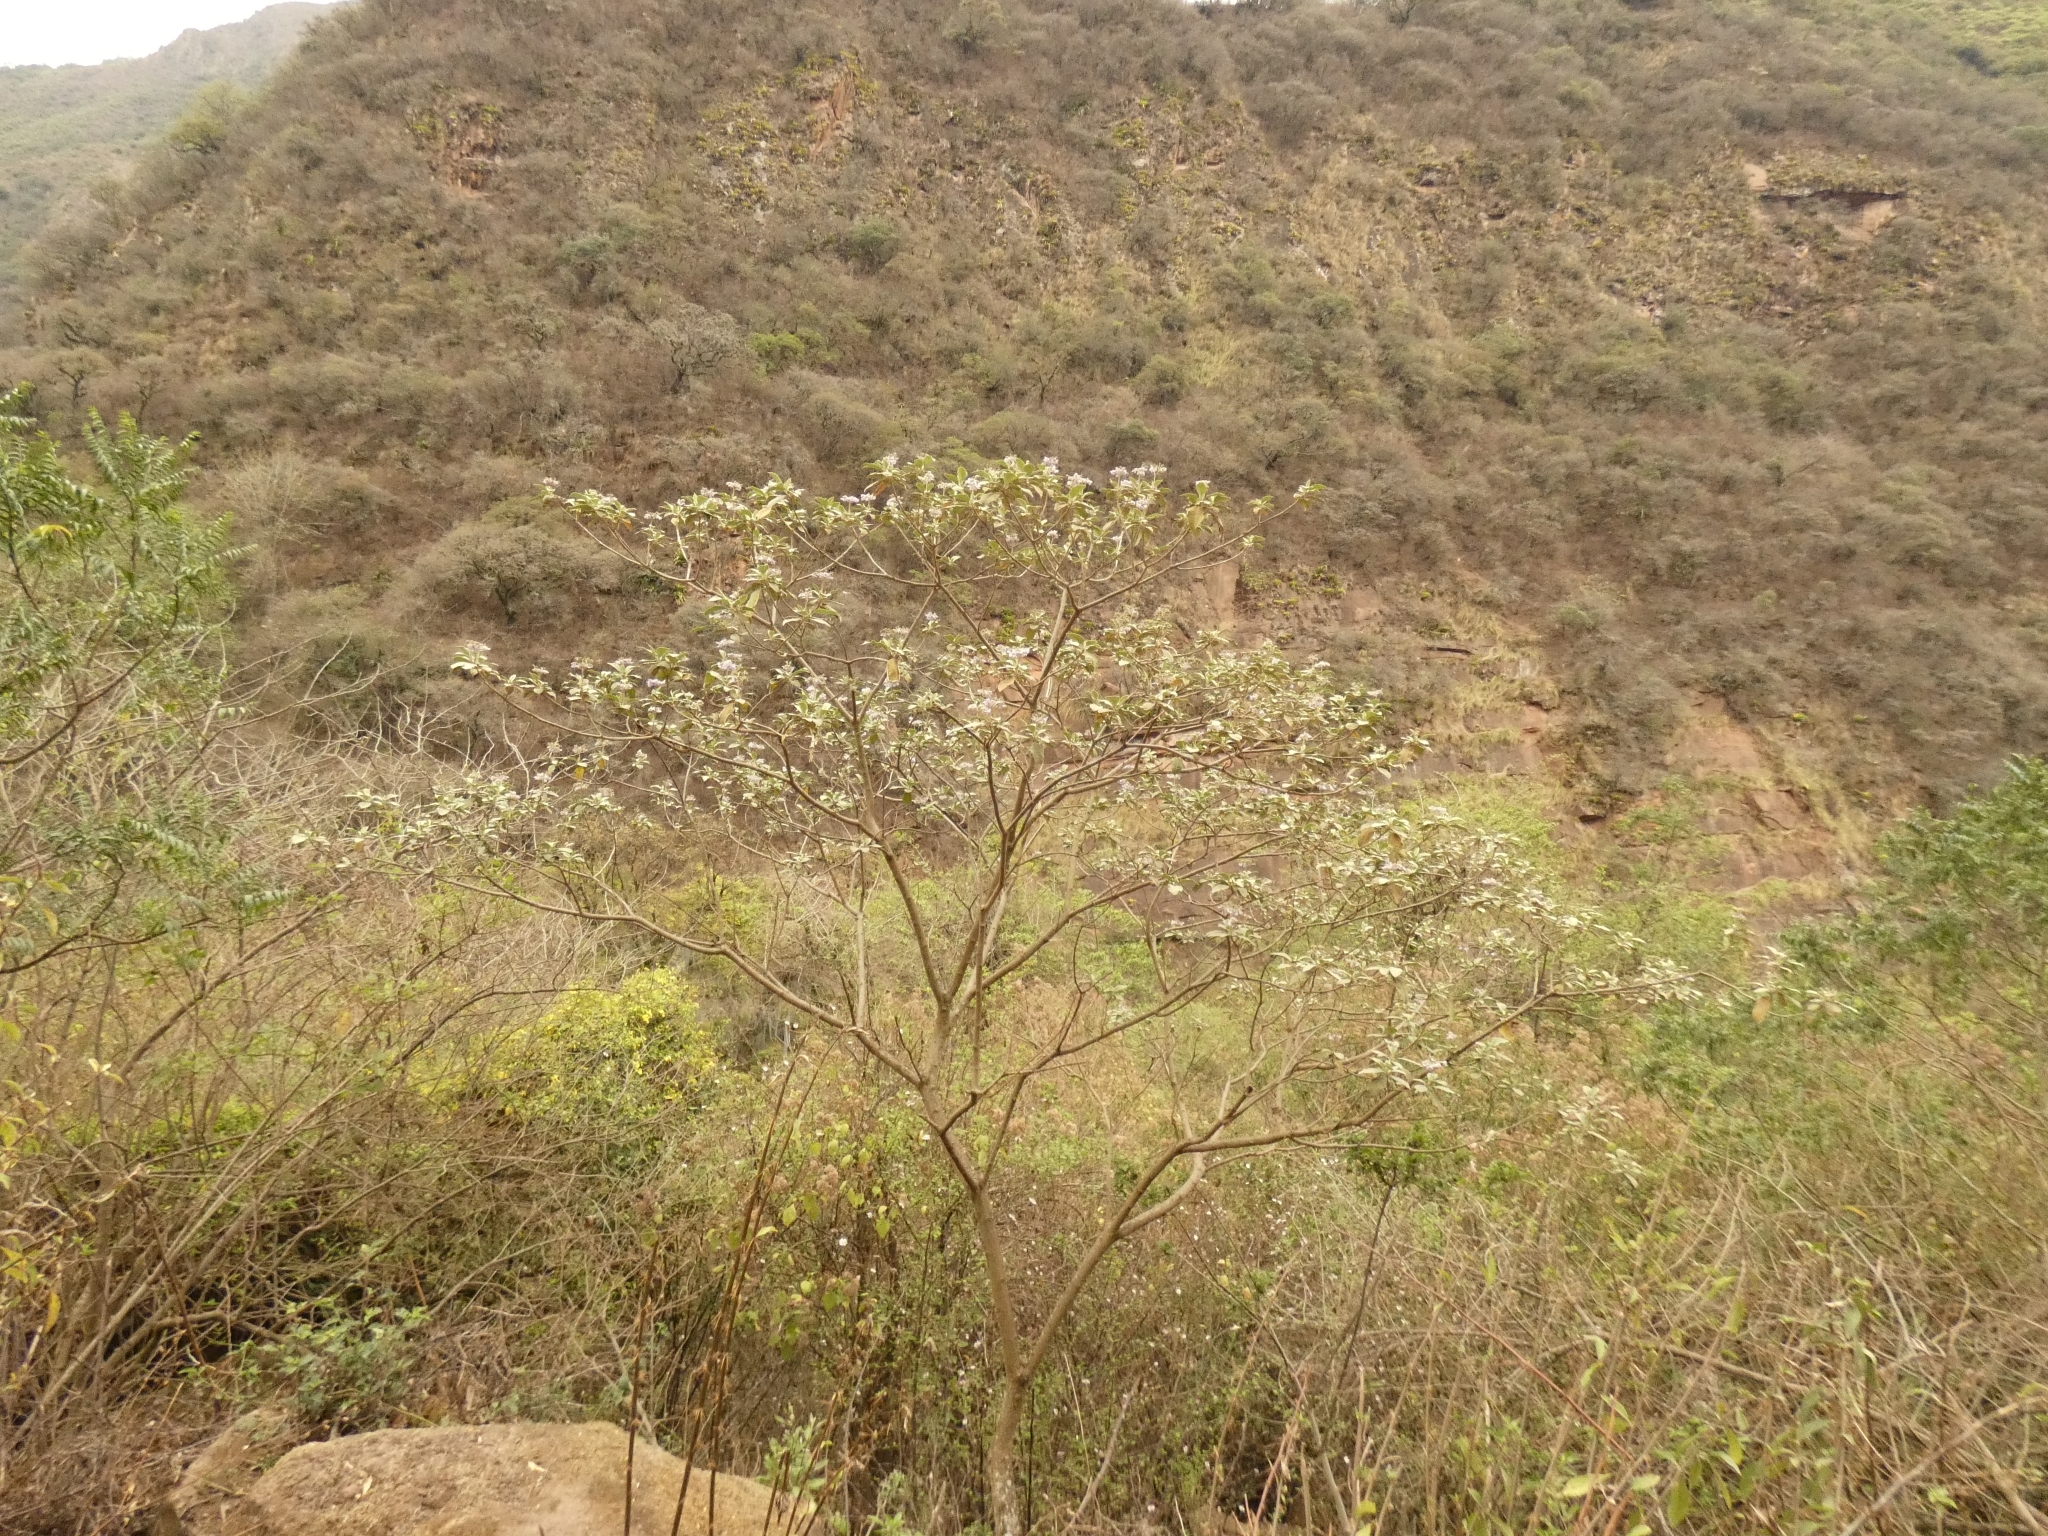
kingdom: Plantae
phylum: Tracheophyta
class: Magnoliopsida
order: Solanales
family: Solanaceae
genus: Solanum
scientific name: Solanum riparium
